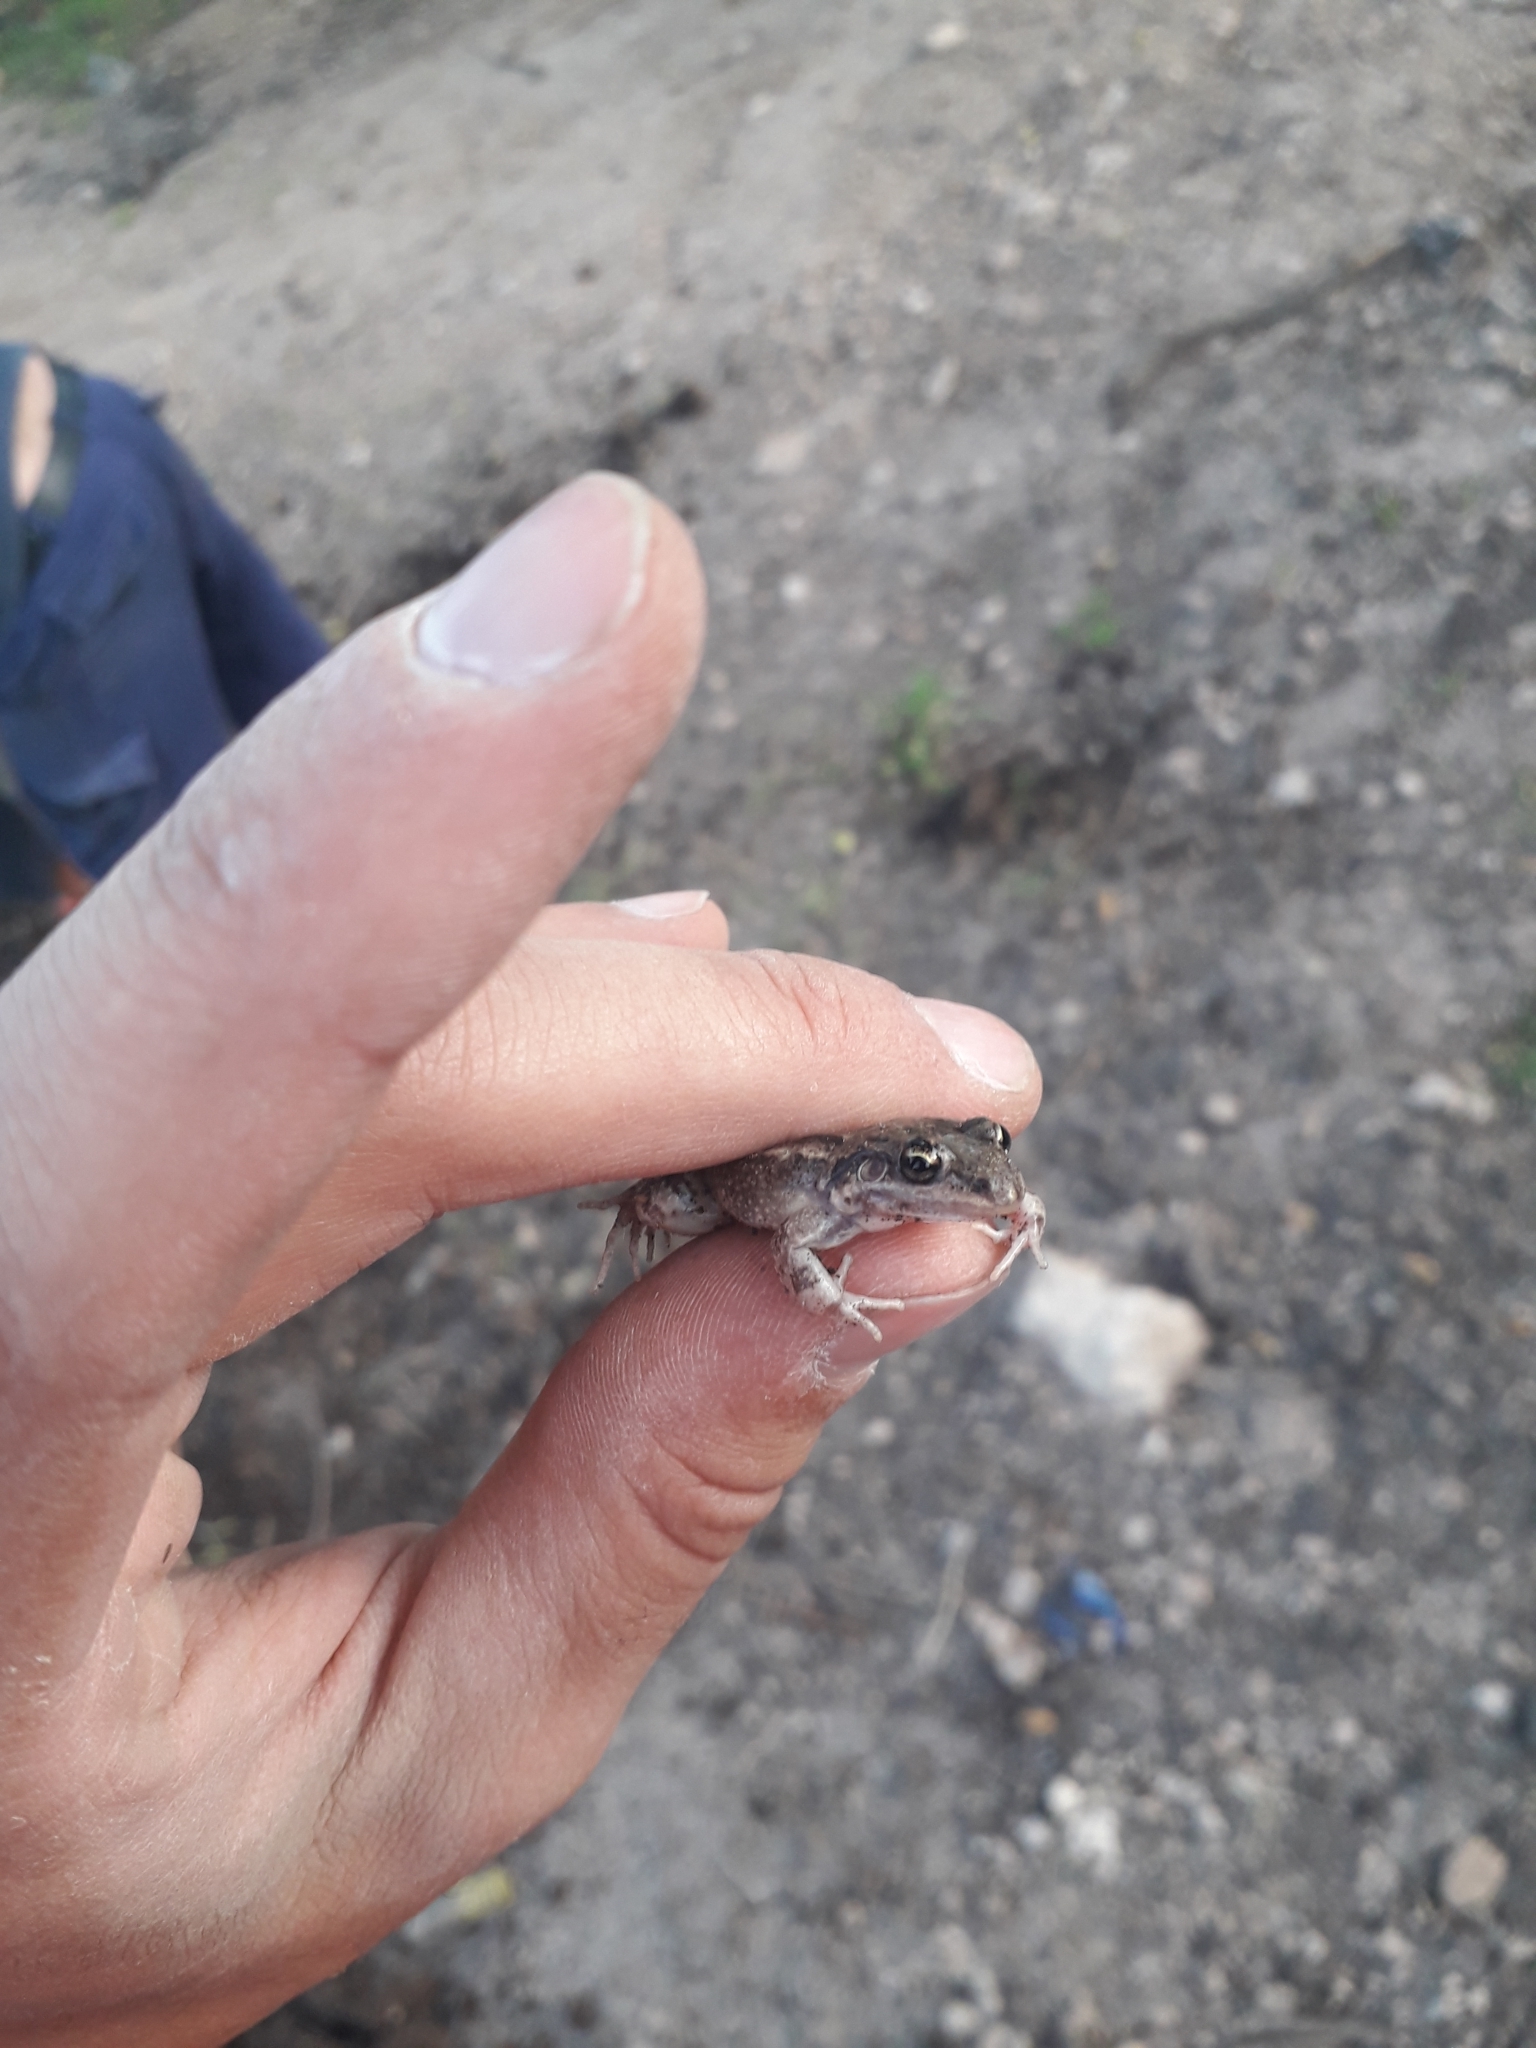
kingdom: Animalia
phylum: Chordata
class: Amphibia
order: Anura
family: Leptodactylidae
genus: Leptodactylus
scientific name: Leptodactylus latinasus
